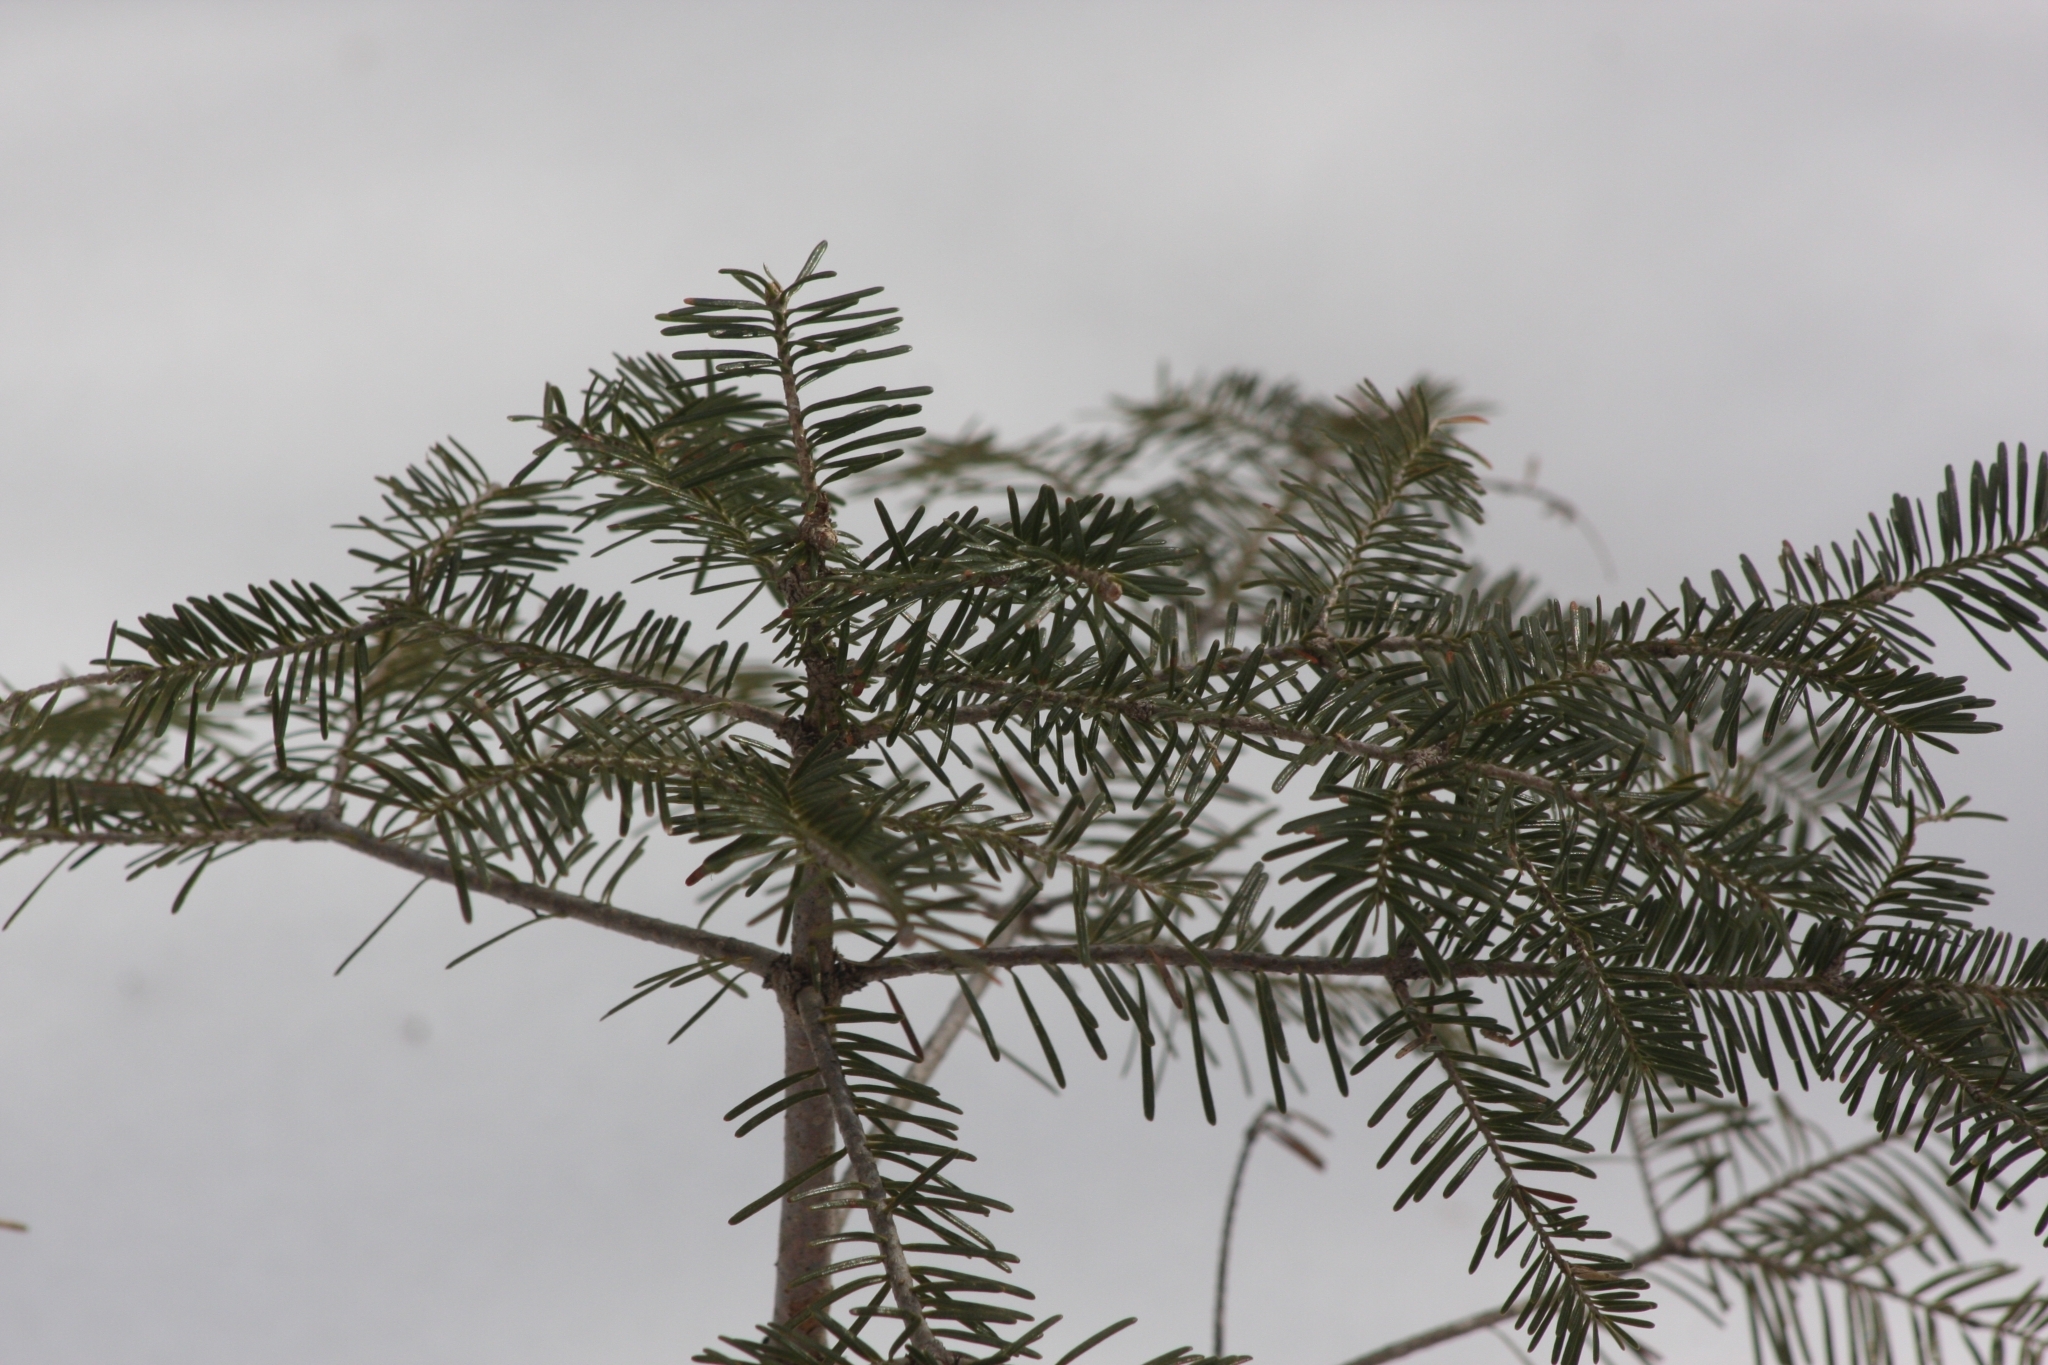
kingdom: Plantae
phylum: Tracheophyta
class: Pinopsida
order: Pinales
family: Pinaceae
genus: Abies
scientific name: Abies balsamea
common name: Balsam fir
